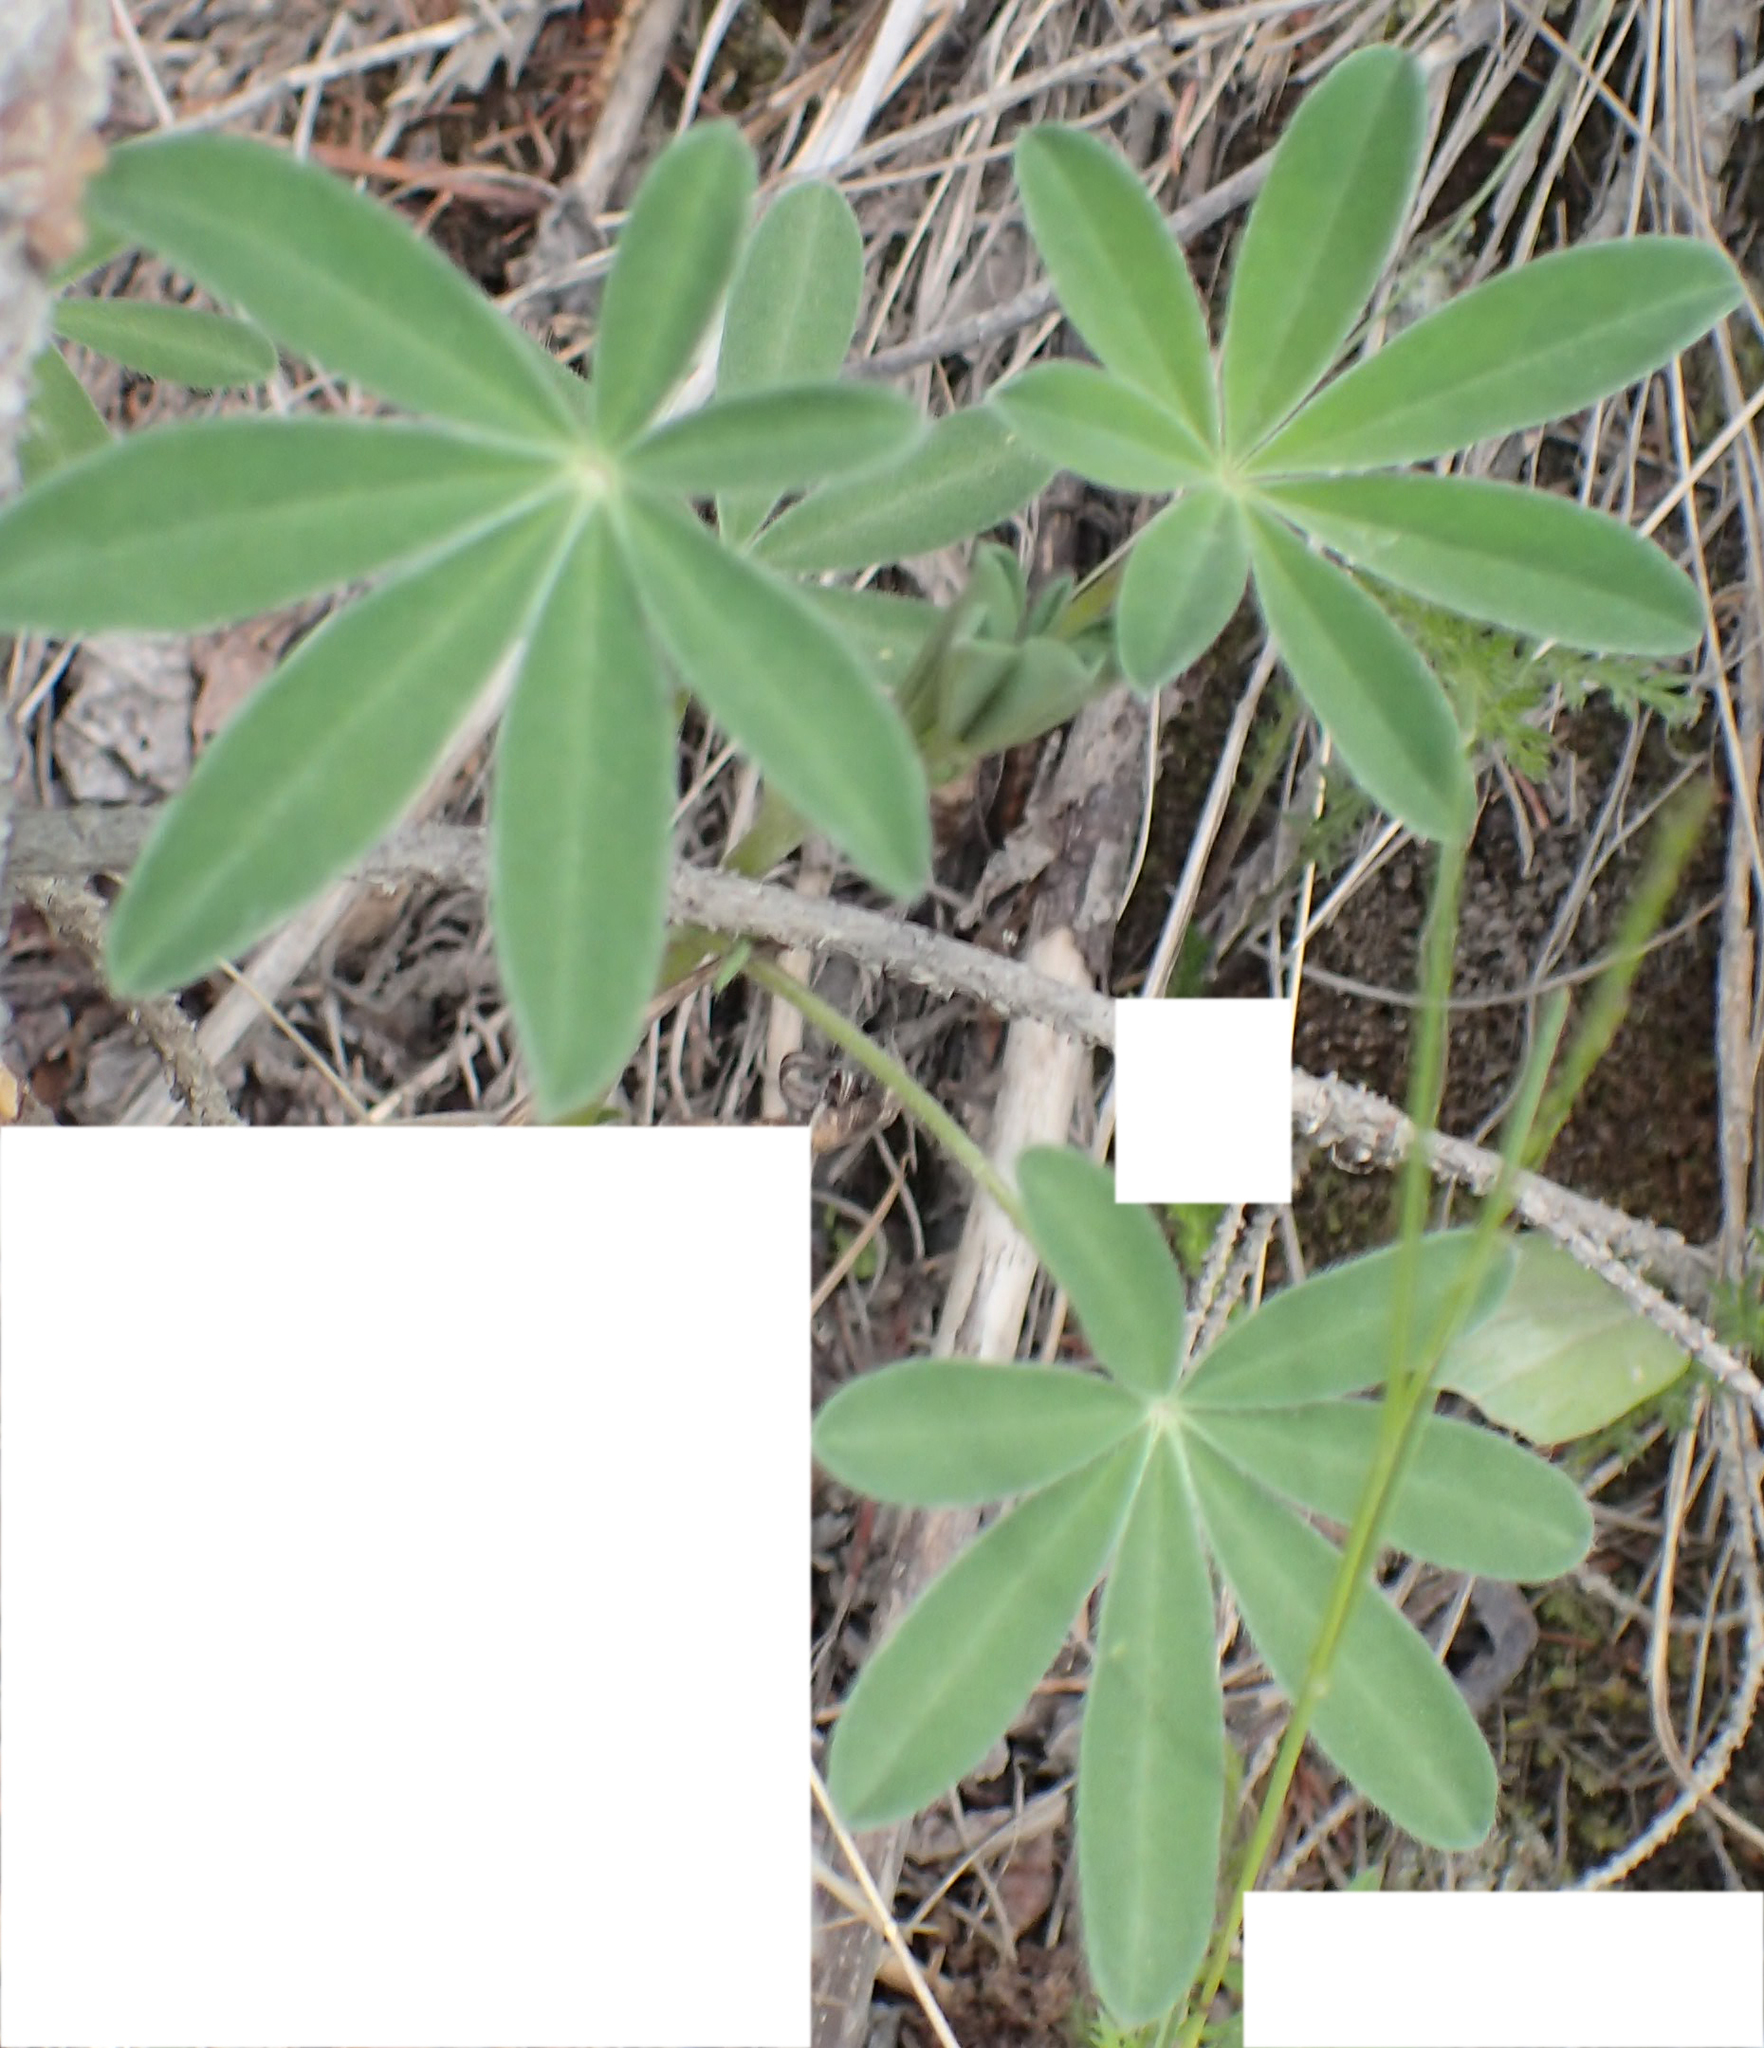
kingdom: Plantae
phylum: Tracheophyta
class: Magnoliopsida
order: Fabales
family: Fabaceae
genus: Lupinus
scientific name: Lupinus nootkatensis
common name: Nootka lupine
